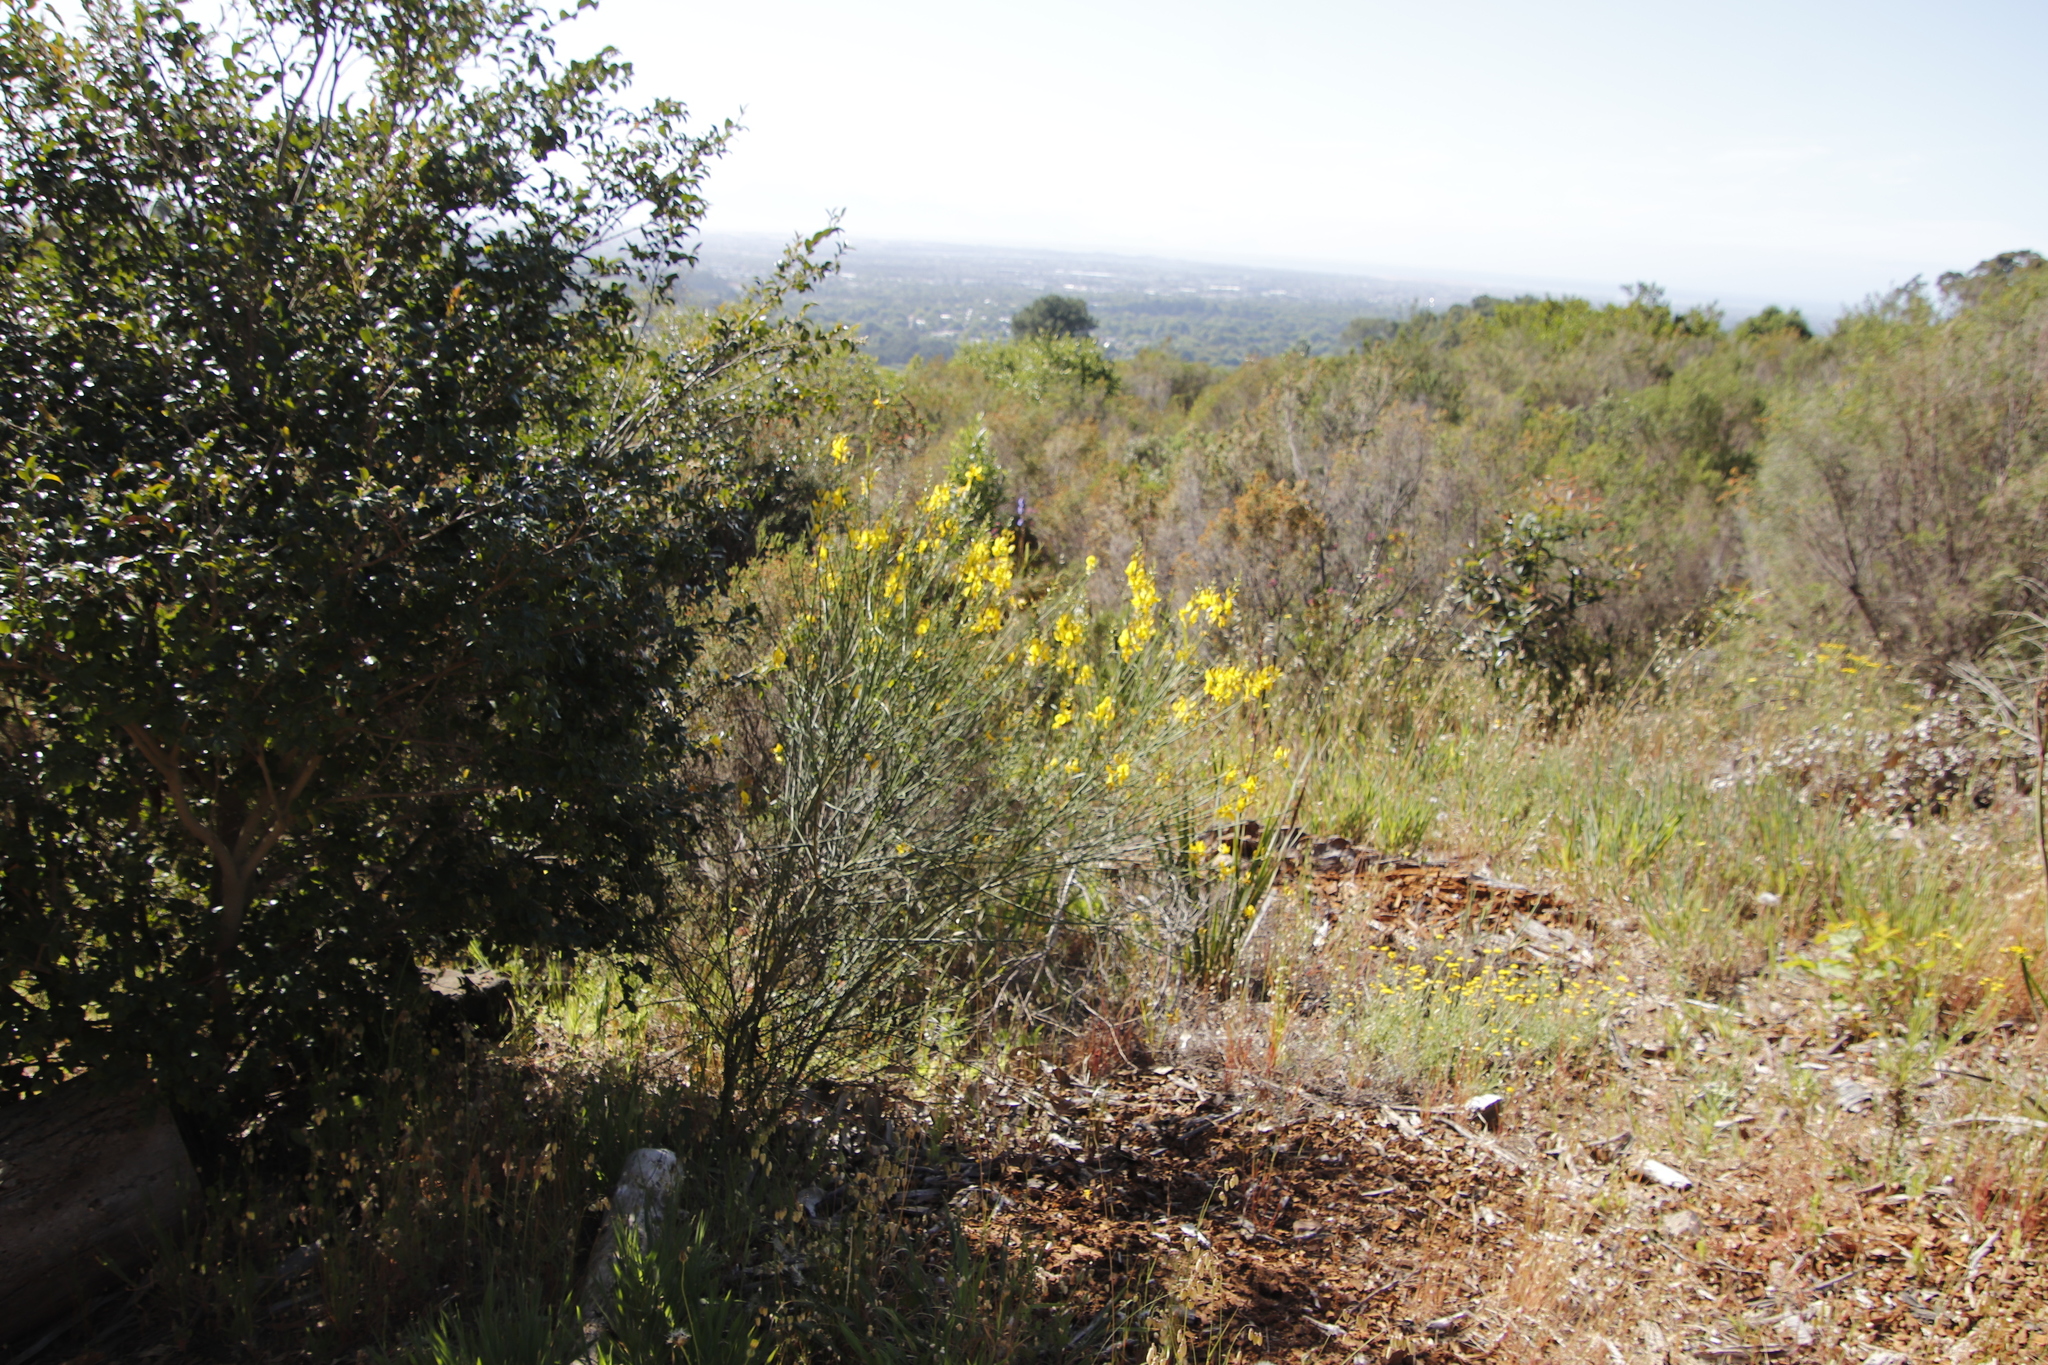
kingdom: Plantae
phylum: Tracheophyta
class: Magnoliopsida
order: Fabales
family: Fabaceae
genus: Spartium
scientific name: Spartium junceum
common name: Spanish broom
